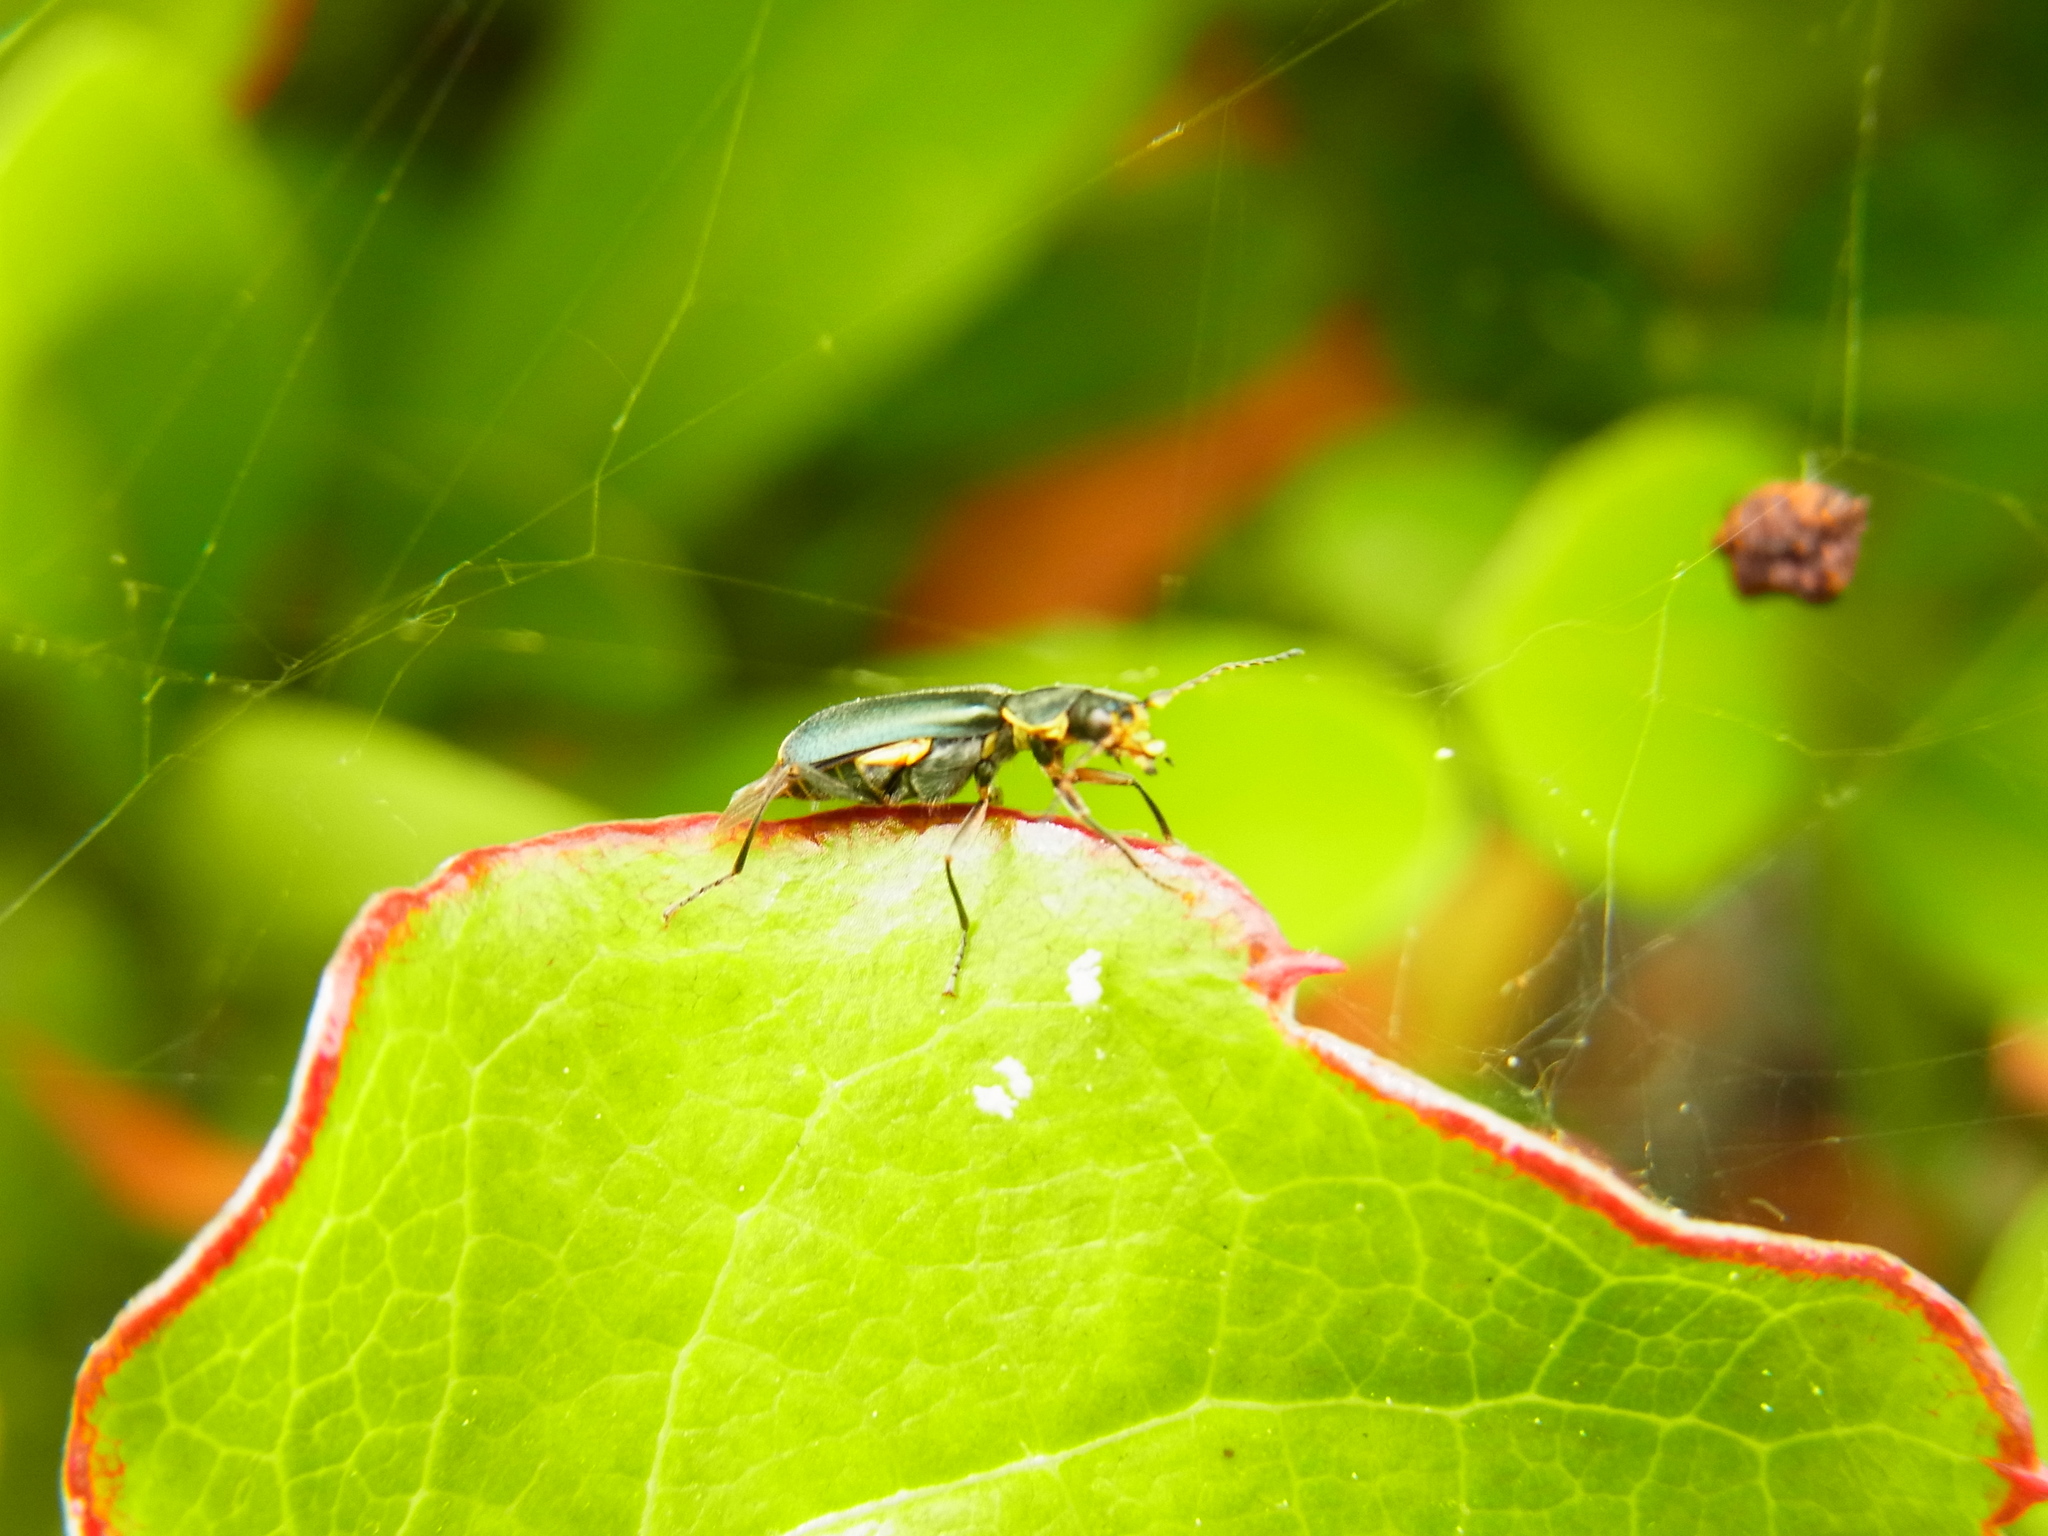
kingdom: Animalia
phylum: Arthropoda
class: Insecta
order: Coleoptera
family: Melyridae
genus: Malachius
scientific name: Malachius prolongatus
